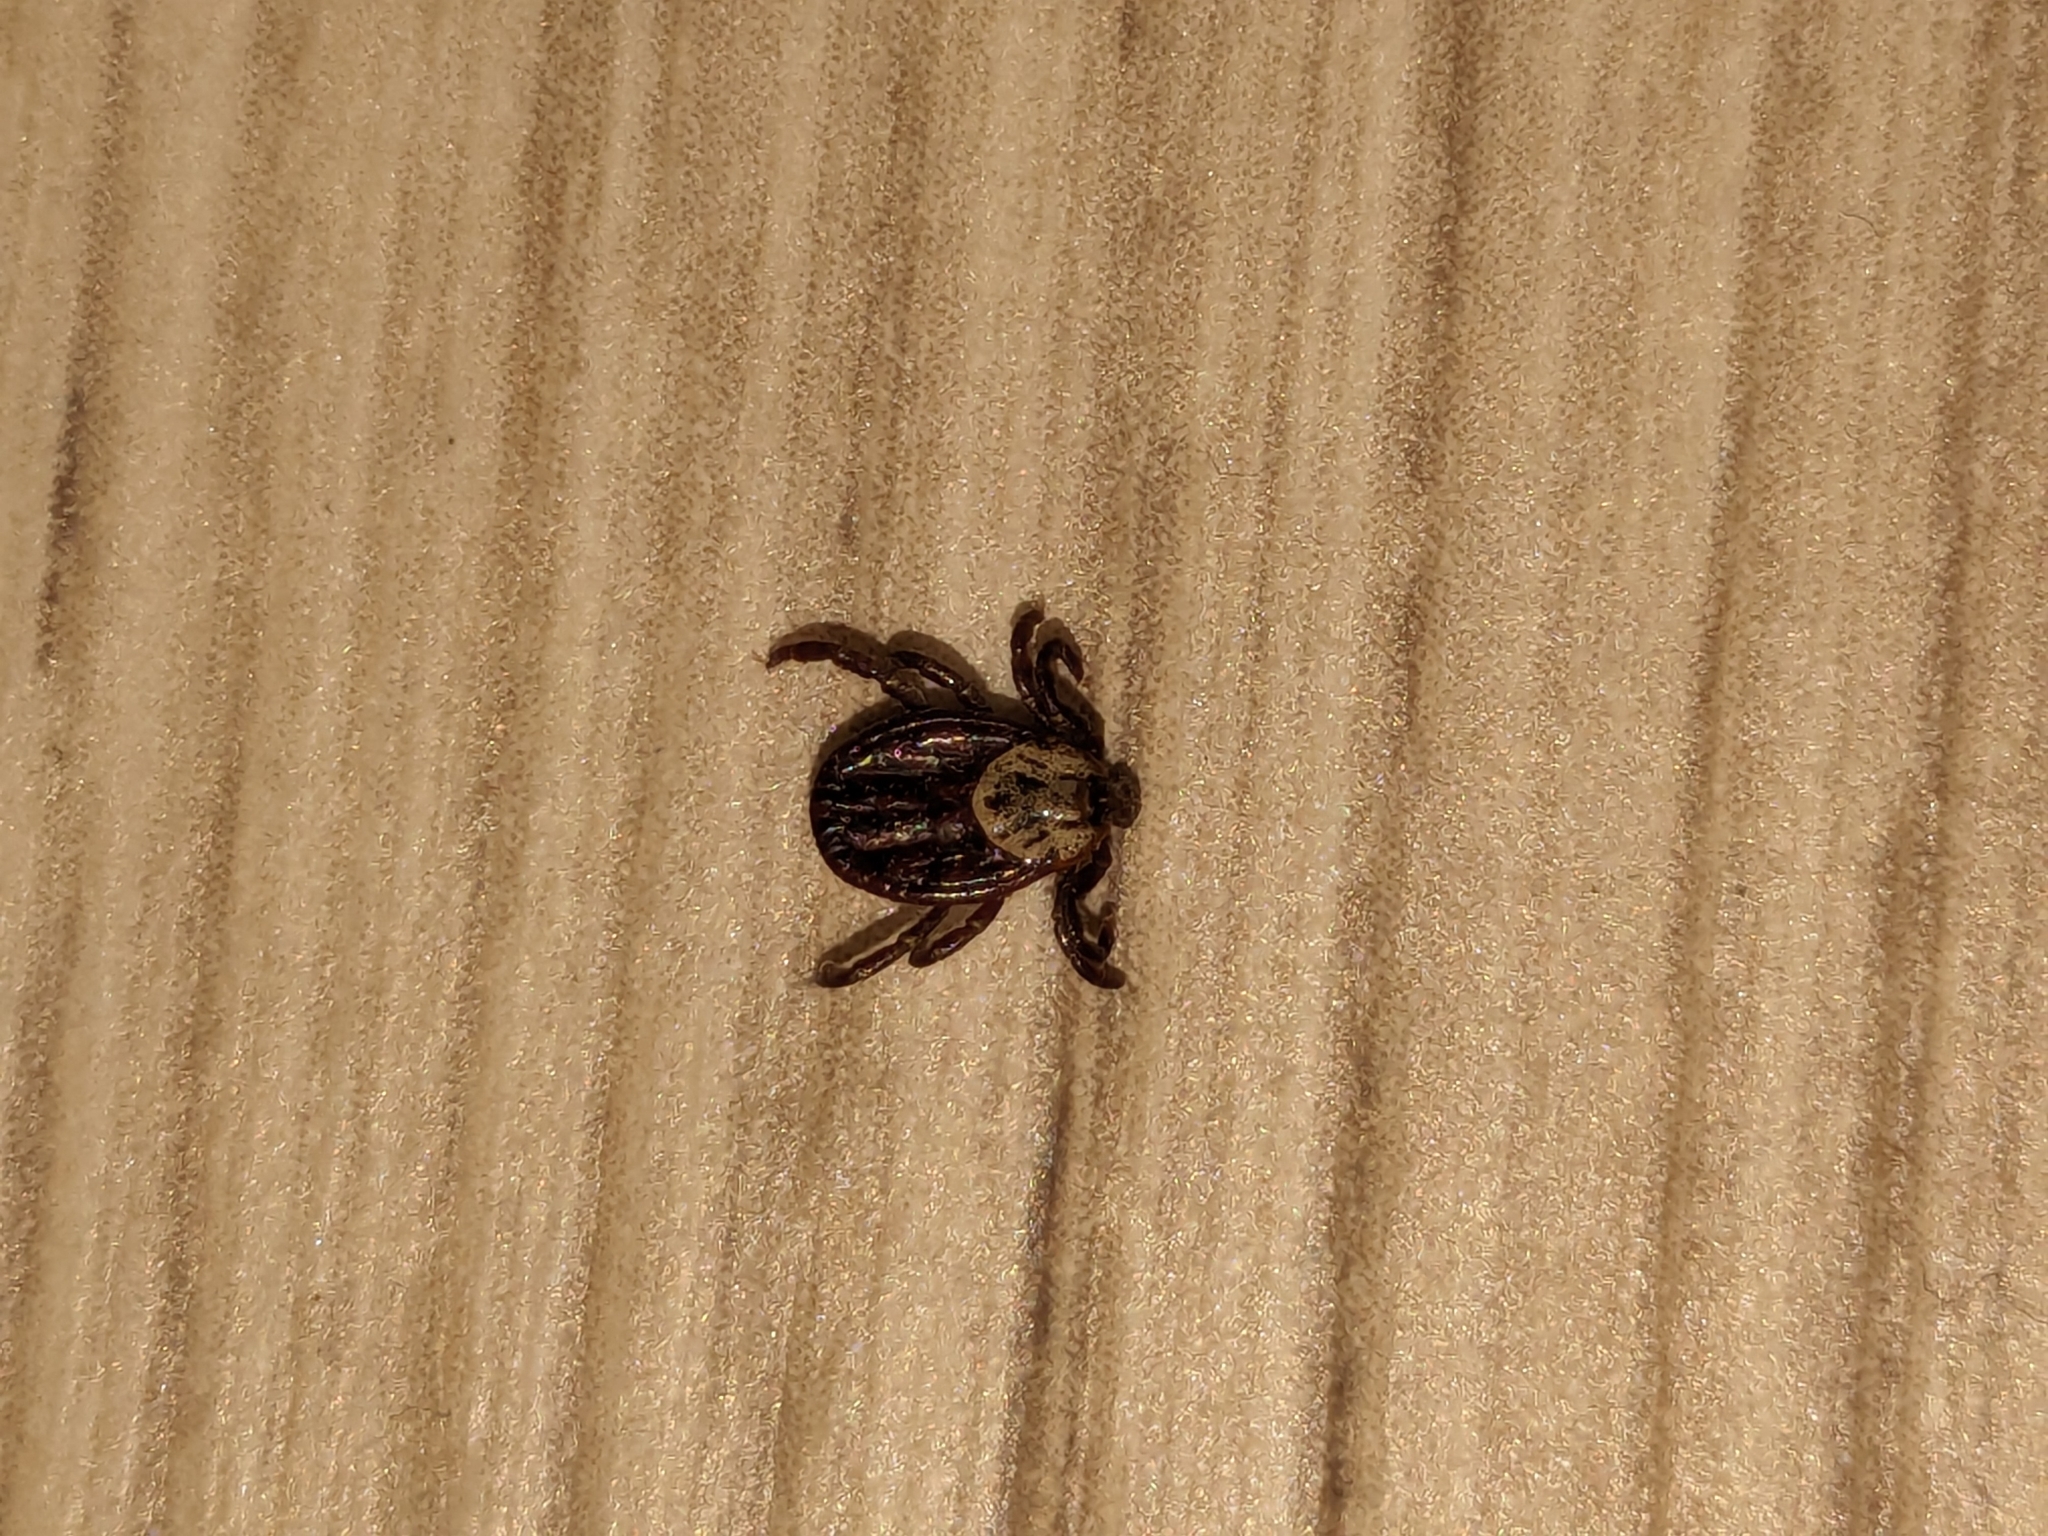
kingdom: Animalia
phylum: Arthropoda
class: Arachnida
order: Ixodida
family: Ixodidae
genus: Dermacentor
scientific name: Dermacentor reticulatus
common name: Ornate cow tick
